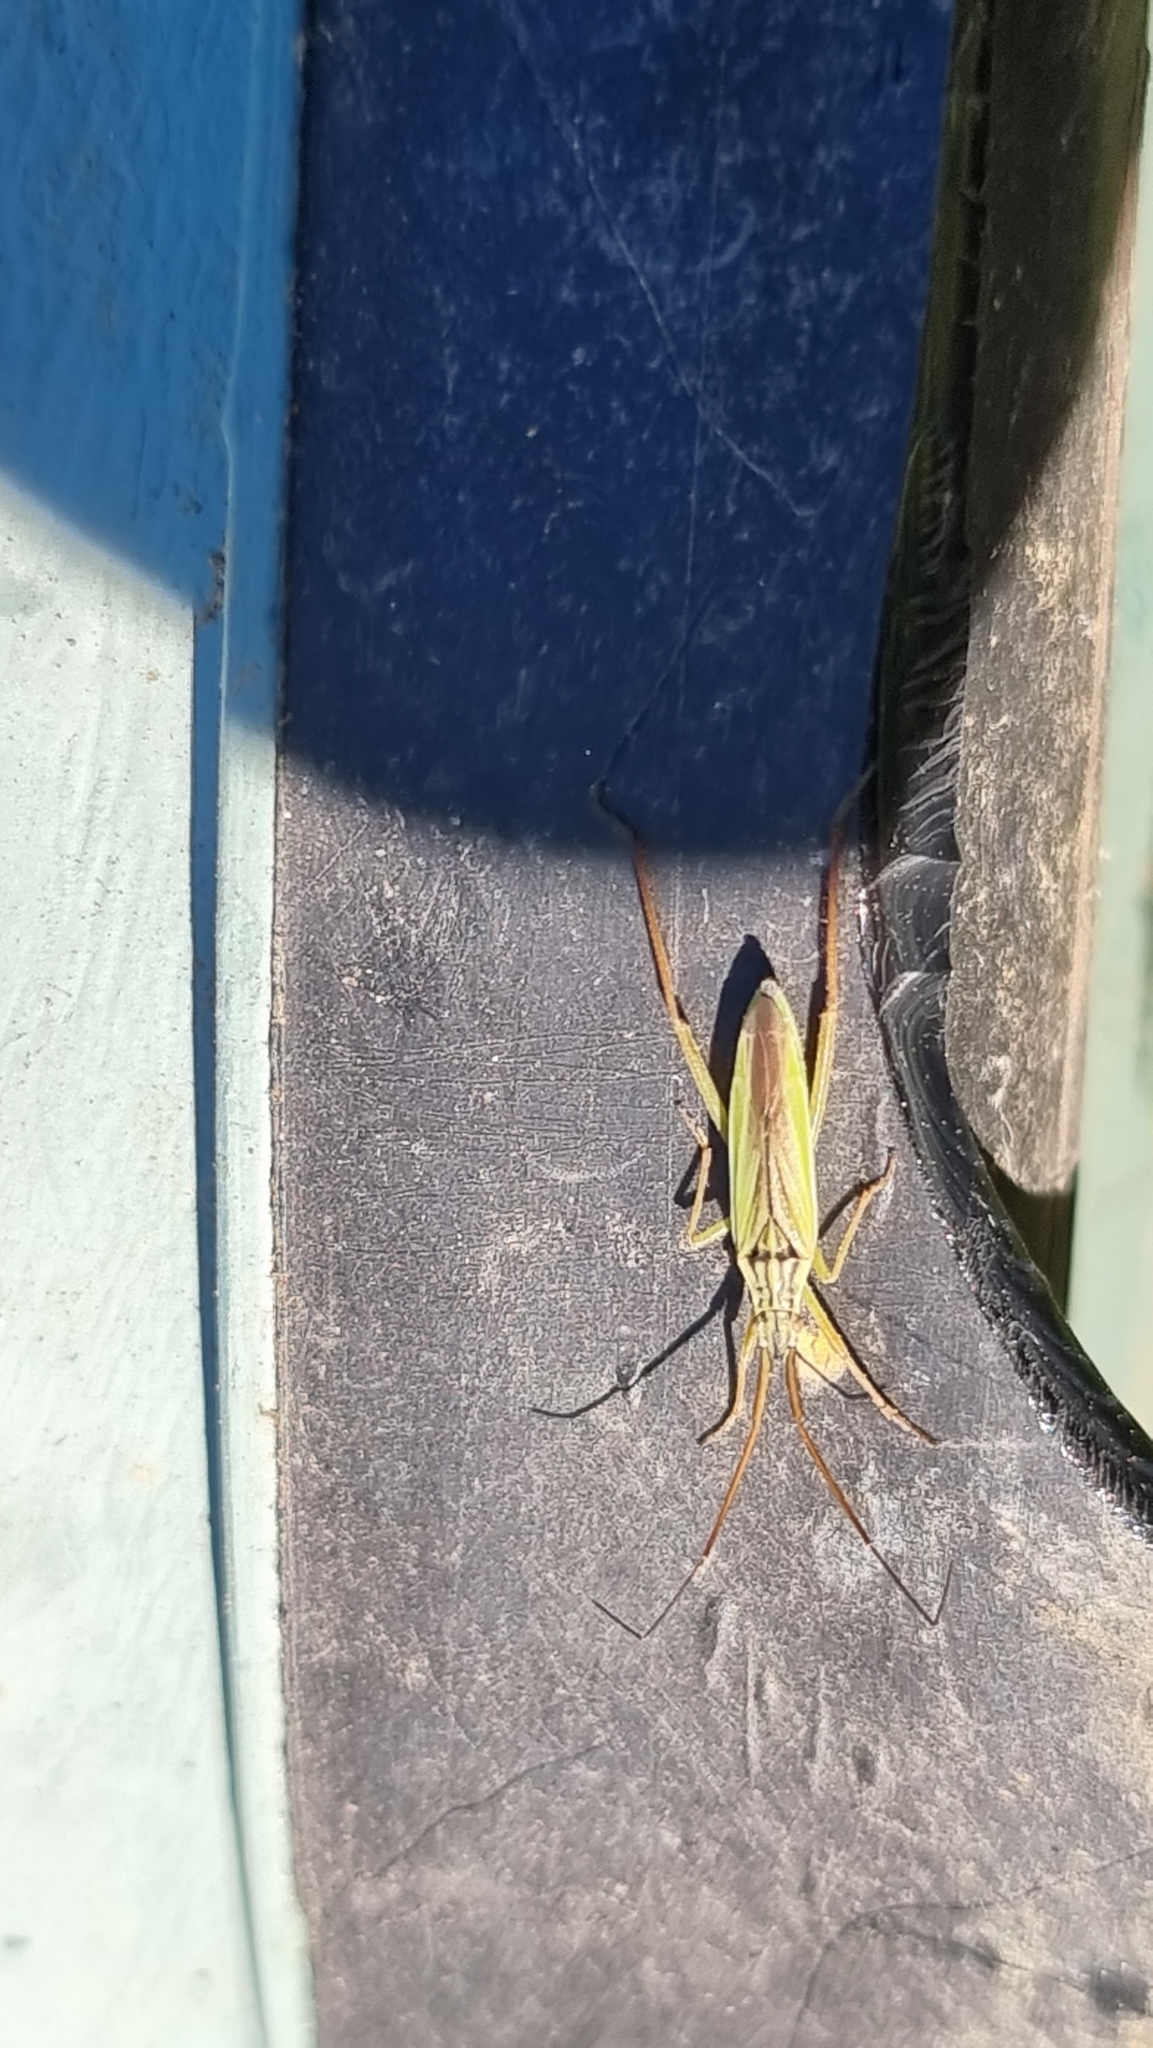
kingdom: Animalia
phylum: Arthropoda
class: Insecta
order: Hemiptera
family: Miridae
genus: Notostira
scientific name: Notostira elongata
